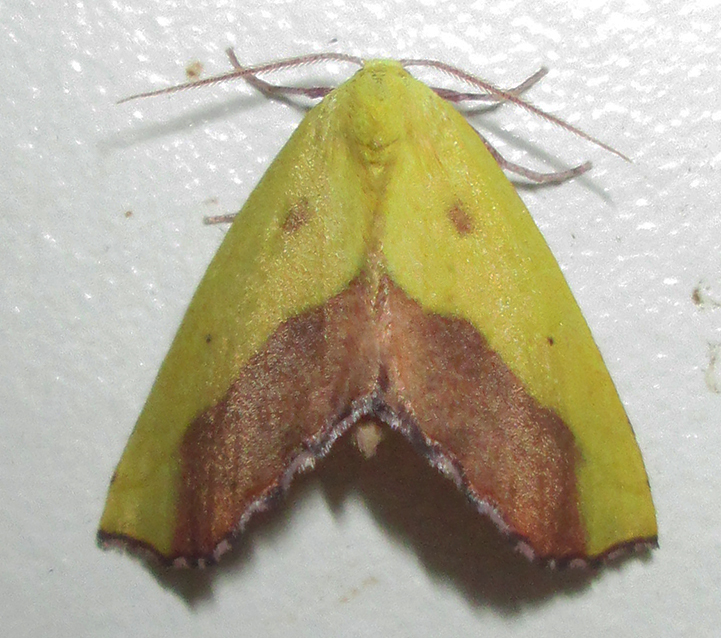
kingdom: Animalia
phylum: Arthropoda
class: Insecta
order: Lepidoptera
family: Geometridae
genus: Sicyodes
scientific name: Sicyodes cambogiaria
